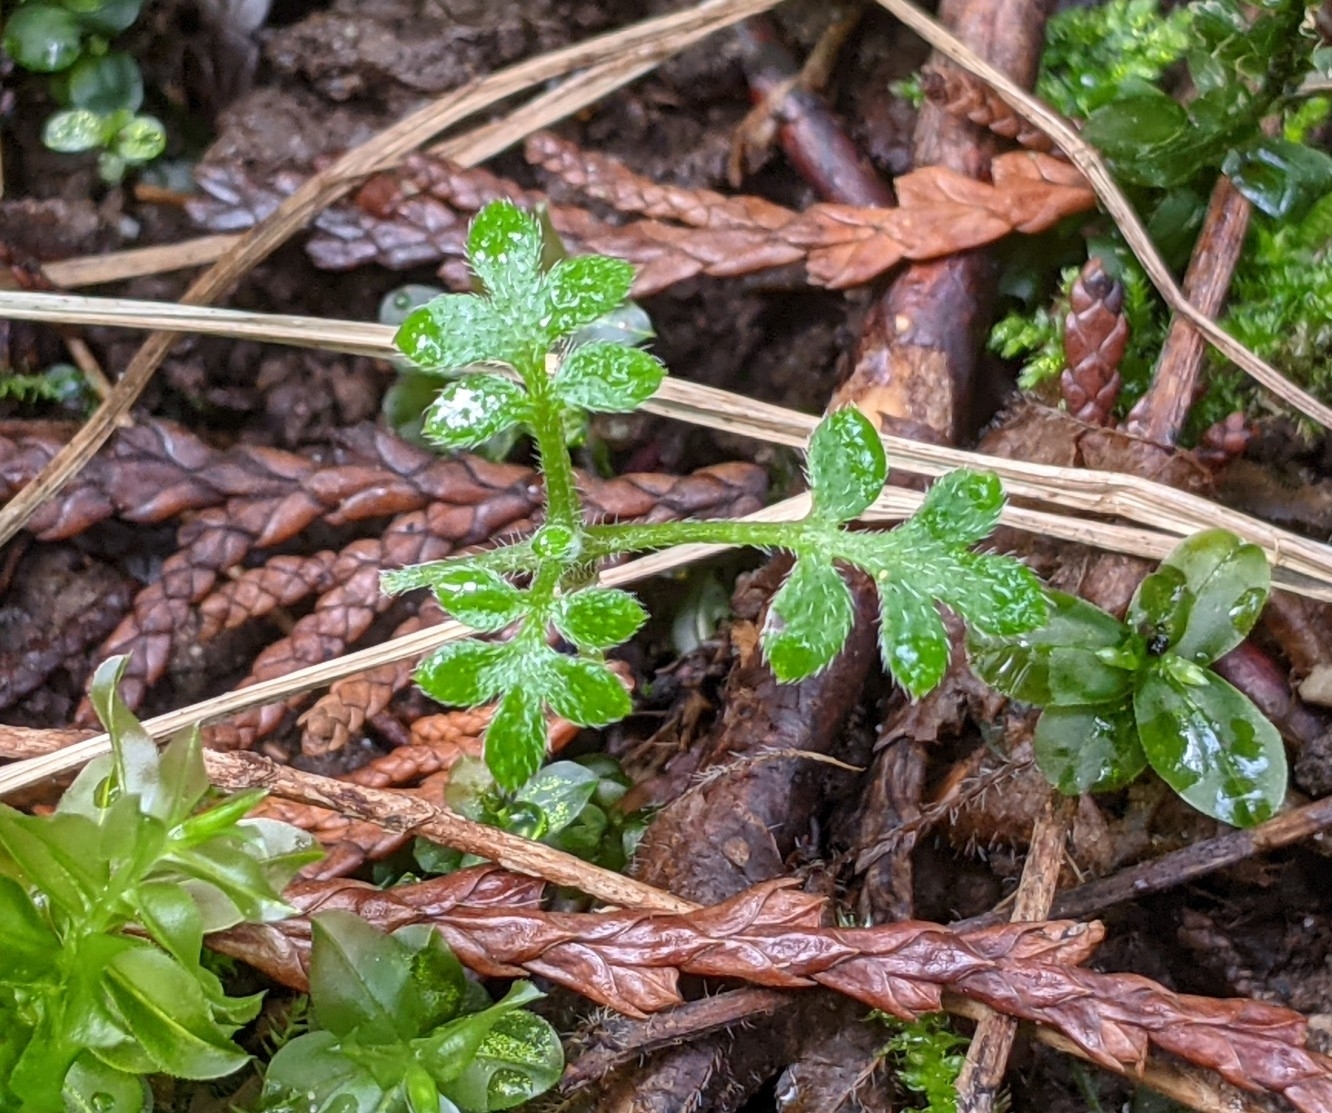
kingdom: Plantae
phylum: Tracheophyta
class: Magnoliopsida
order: Boraginales
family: Hydrophyllaceae
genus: Nemophila
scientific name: Nemophila parviflora
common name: Small-flowered baby-blue-eyes
